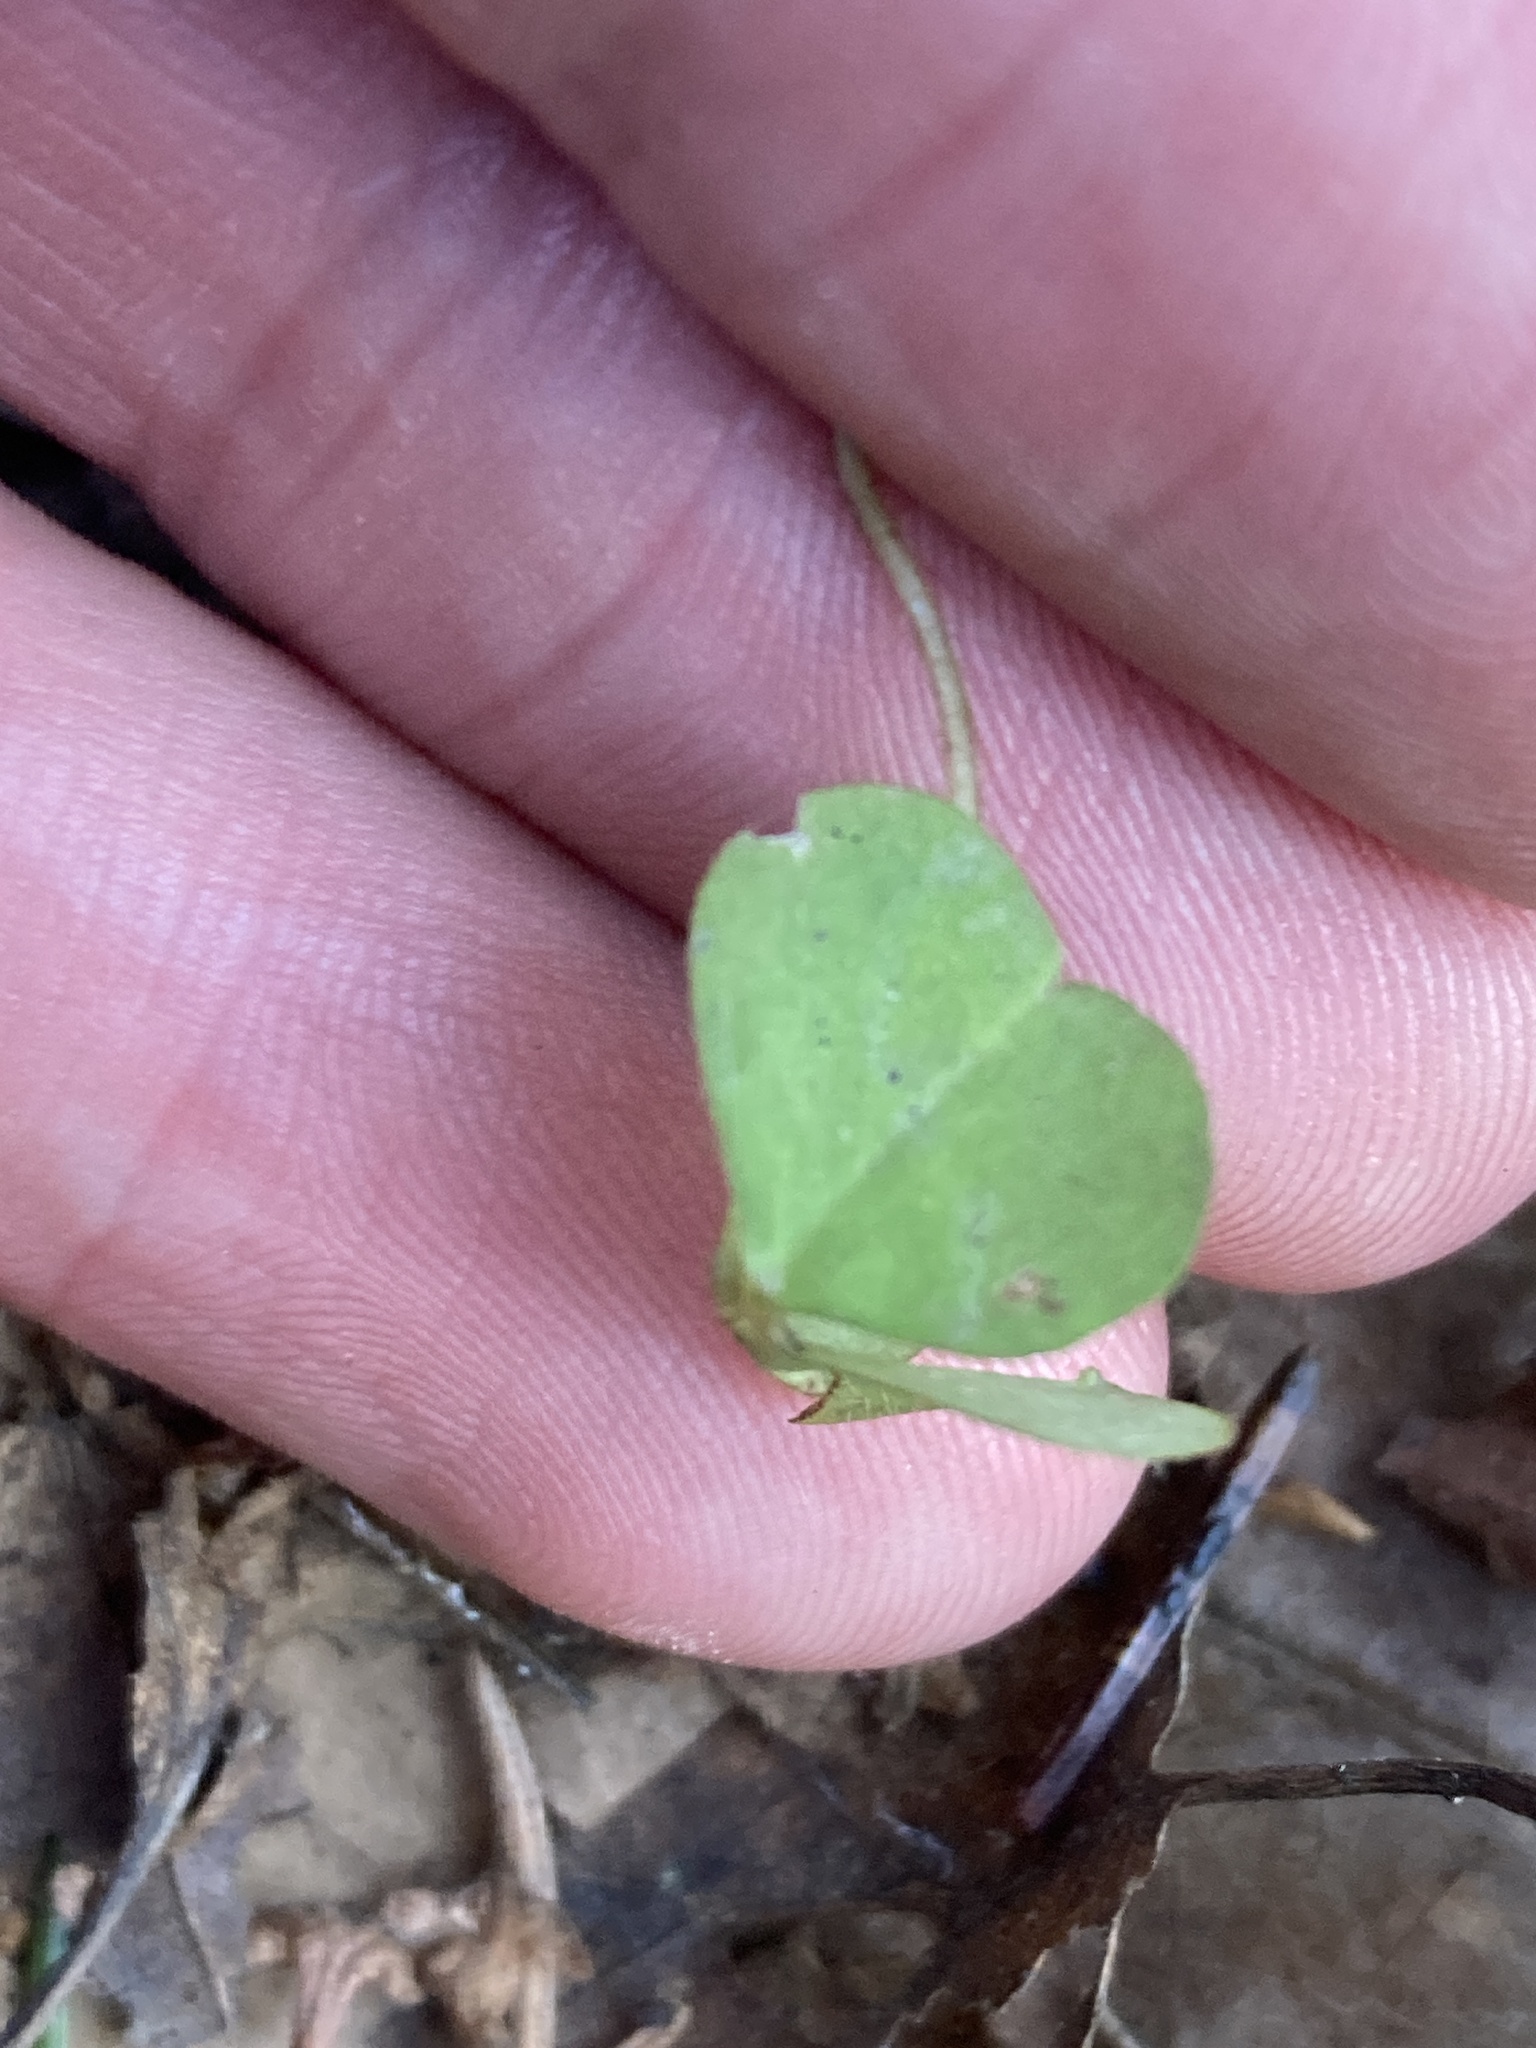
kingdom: Plantae
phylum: Tracheophyta
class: Magnoliopsida
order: Oxalidales
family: Oxalidaceae
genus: Oxalis
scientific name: Oxalis acetosella
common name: Wood-sorrel
